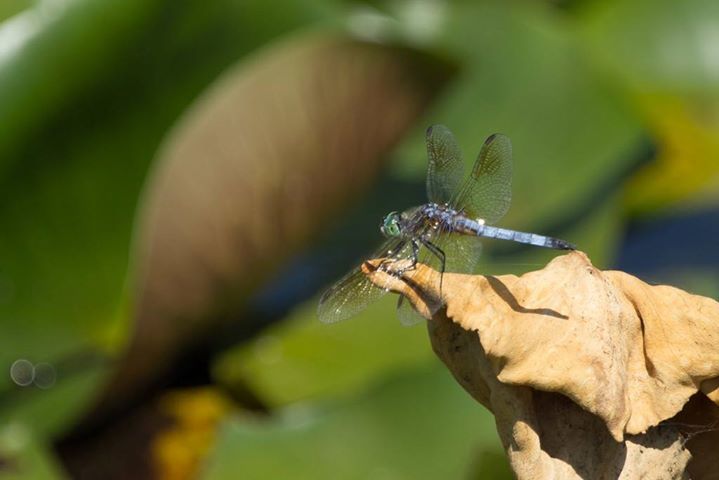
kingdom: Animalia
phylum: Arthropoda
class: Insecta
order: Odonata
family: Libellulidae
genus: Pachydiplax
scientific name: Pachydiplax longipennis
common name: Blue dasher
